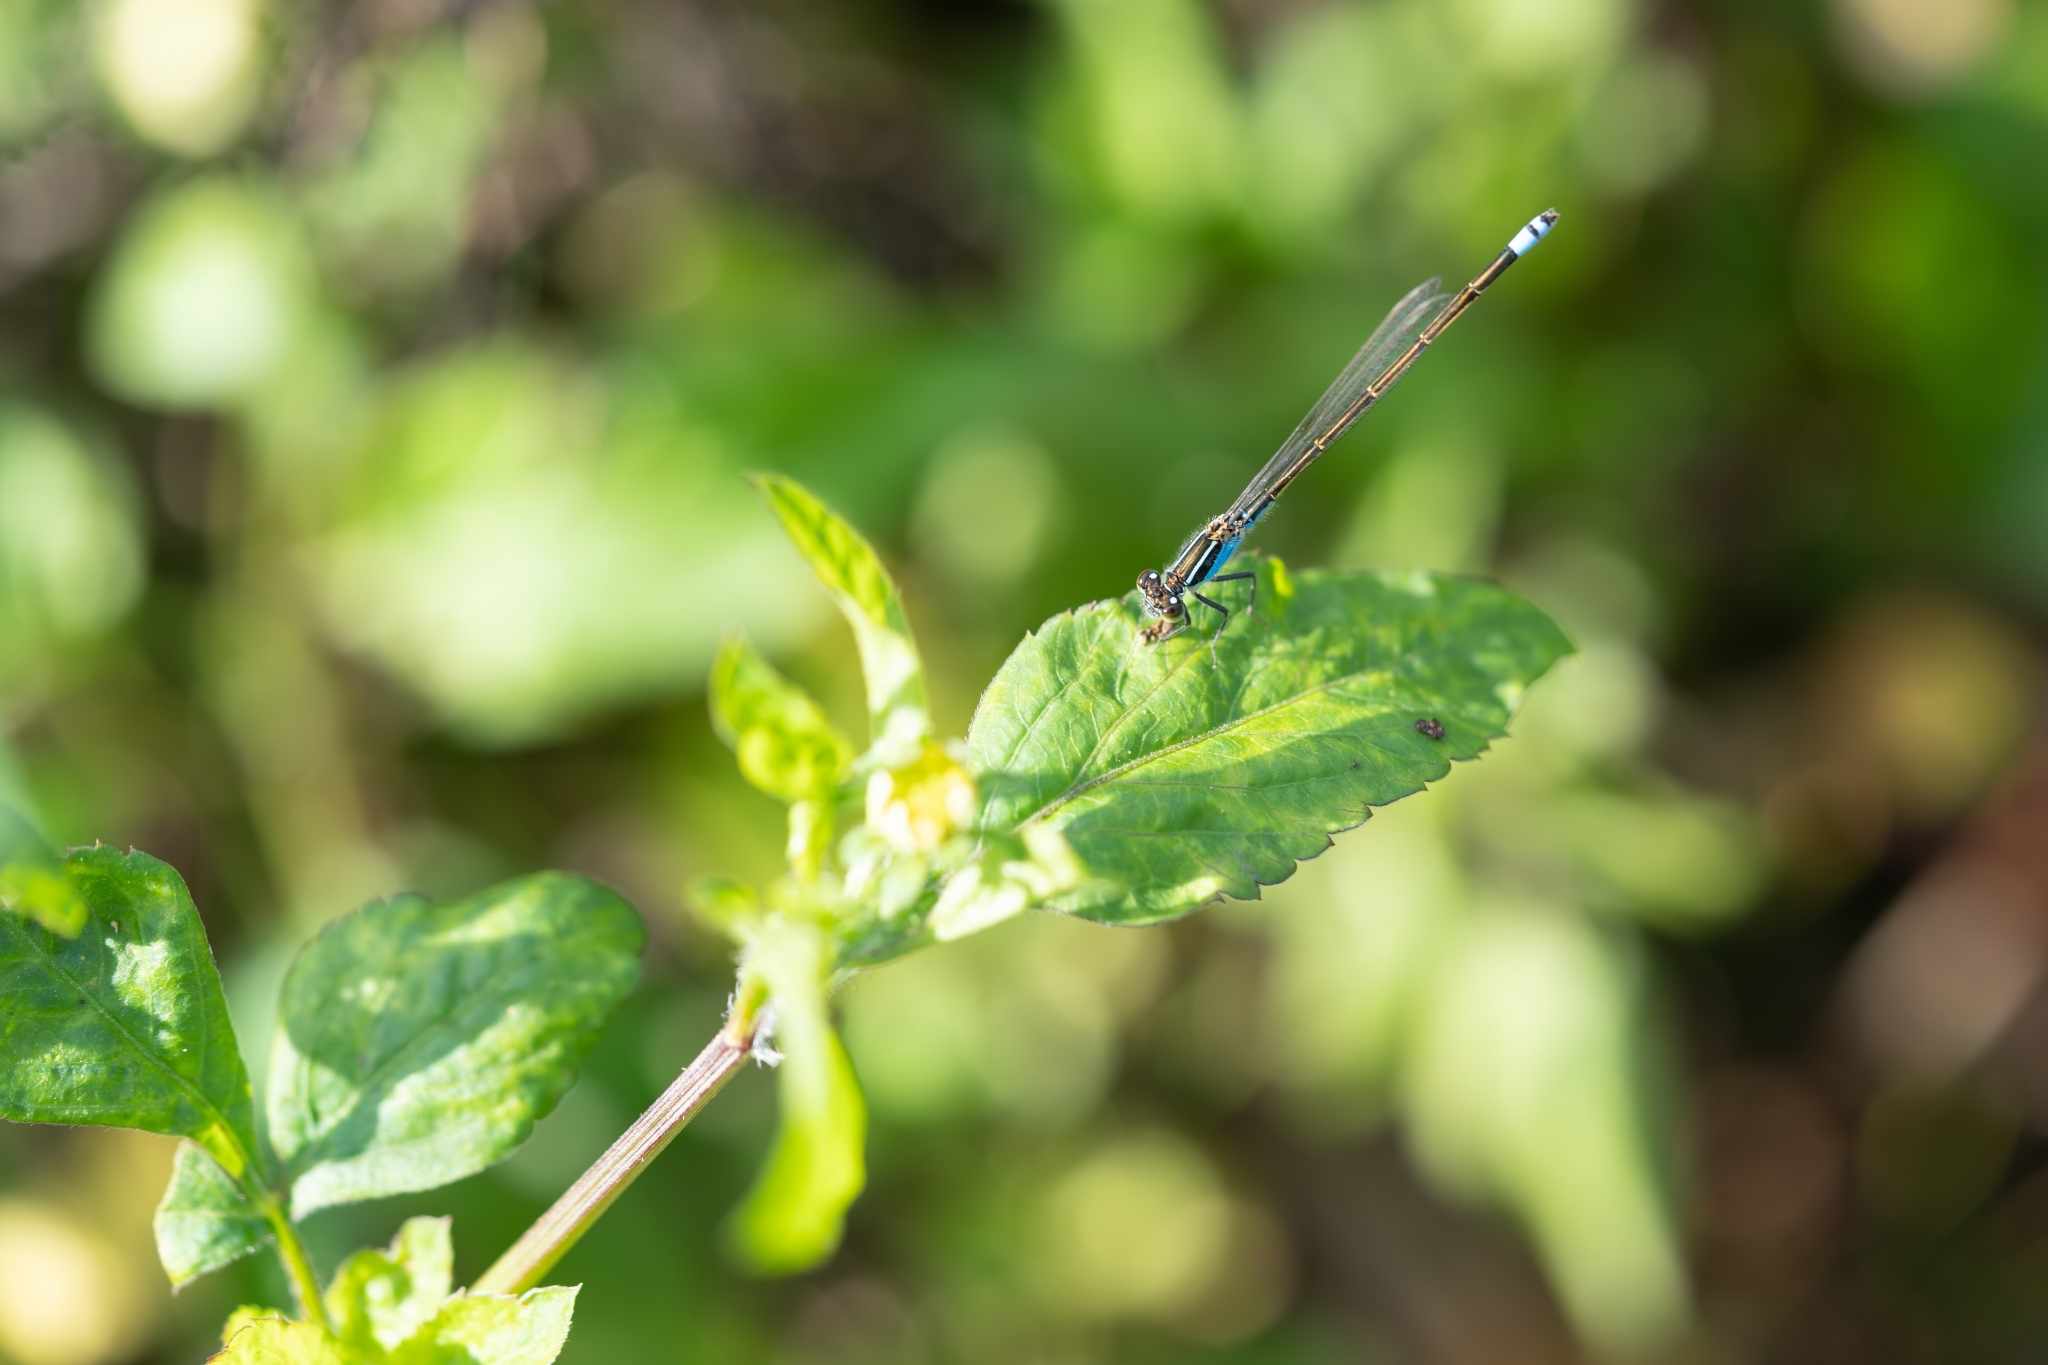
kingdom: Animalia
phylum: Arthropoda
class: Insecta
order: Odonata
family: Coenagrionidae
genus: Ischnura
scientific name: Ischnura ramburii
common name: Rambur's forktail
